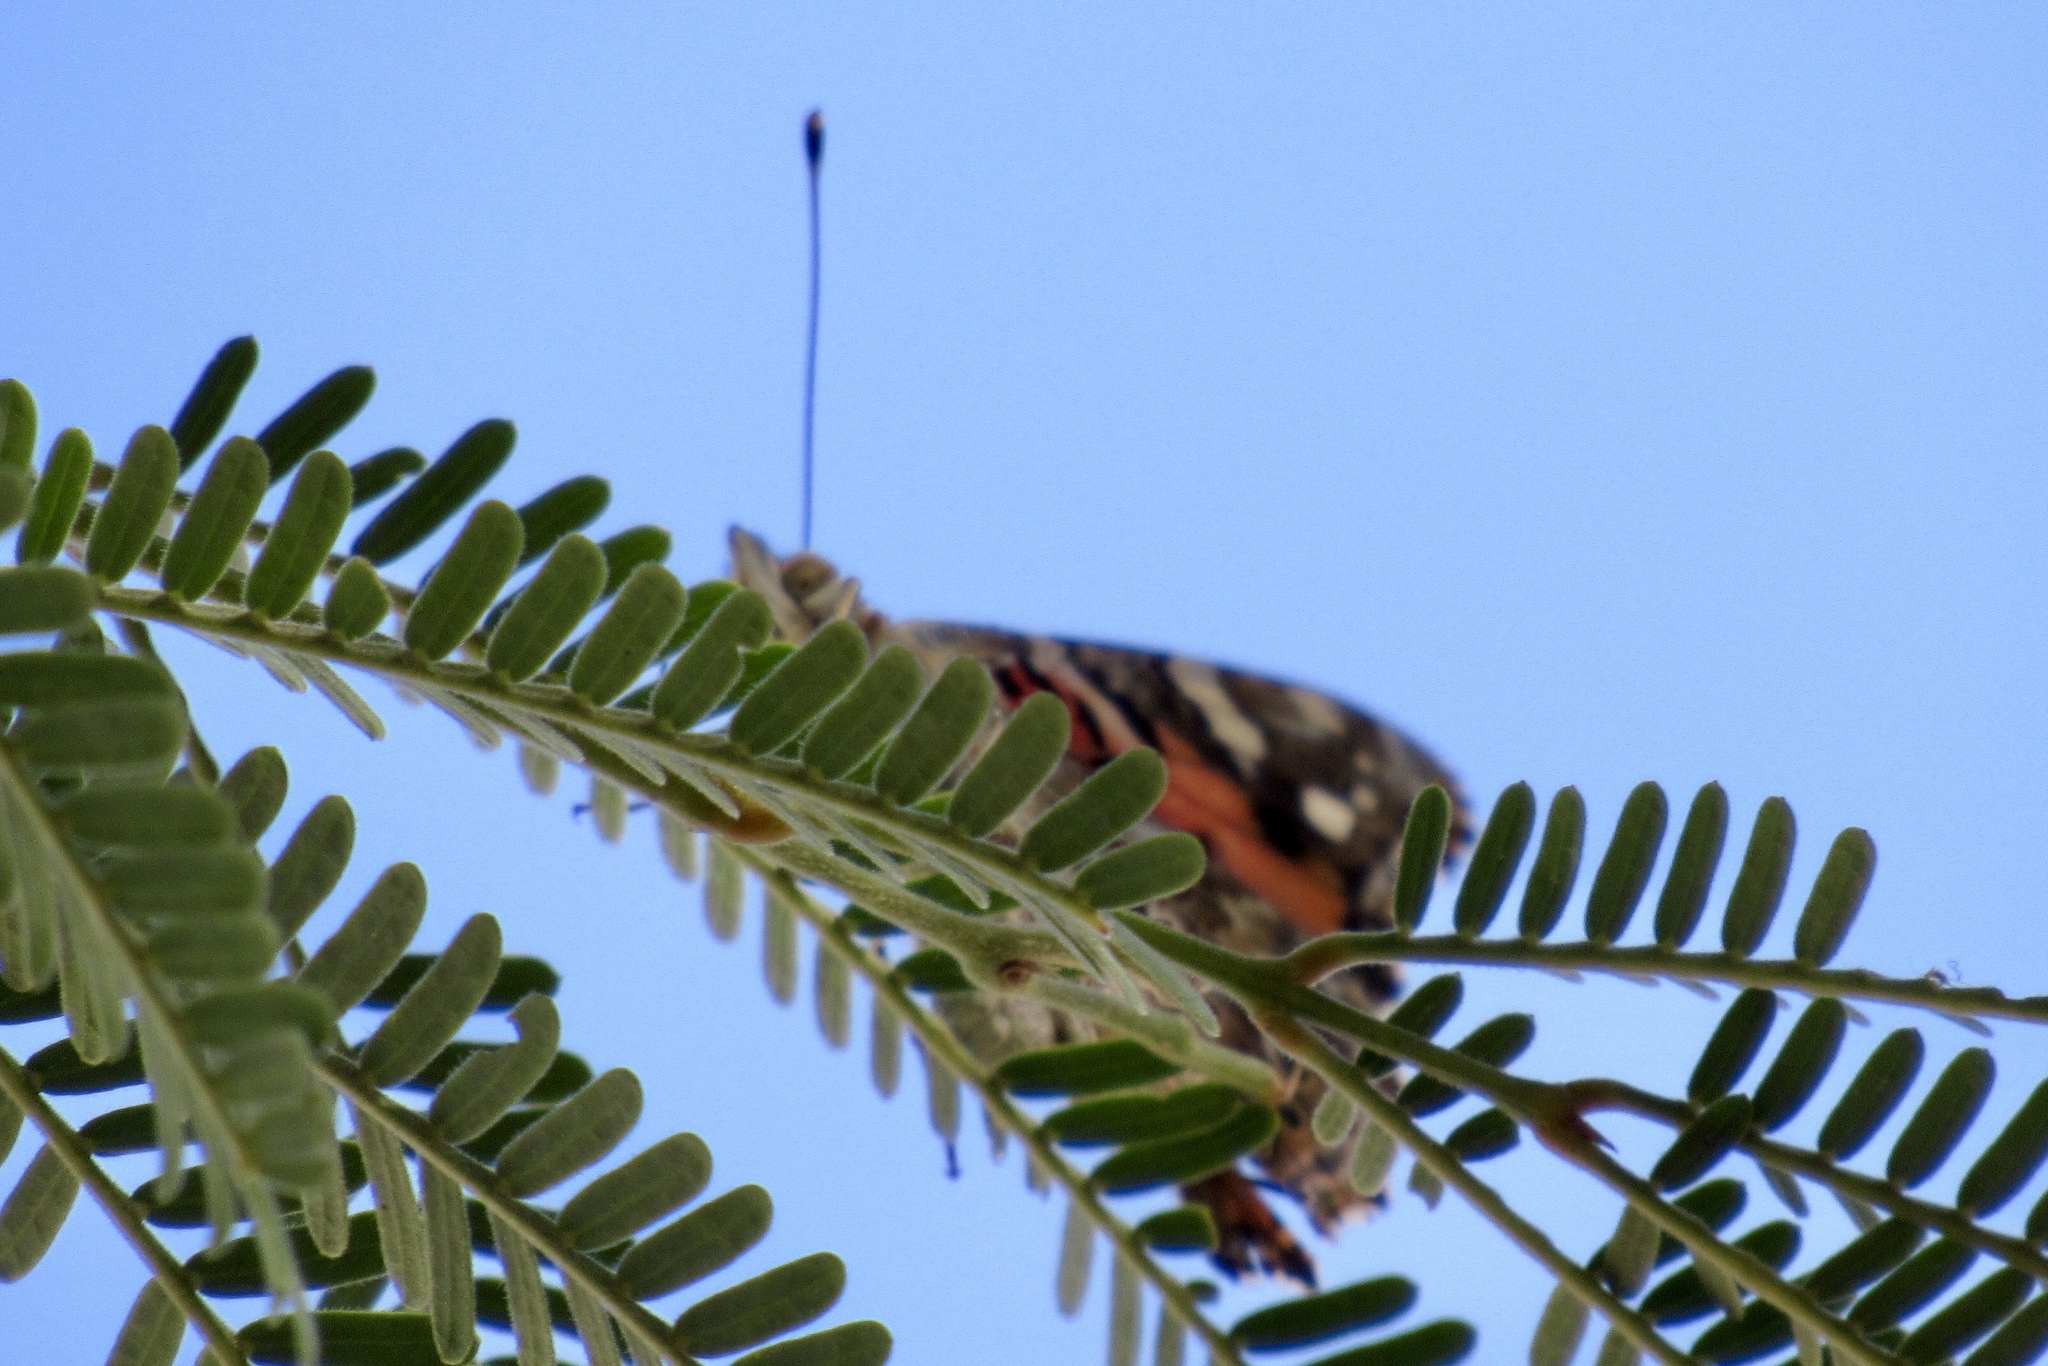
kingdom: Animalia
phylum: Arthropoda
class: Insecta
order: Lepidoptera
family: Nymphalidae
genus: Vanessa
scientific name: Vanessa cardui
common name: Painted lady
